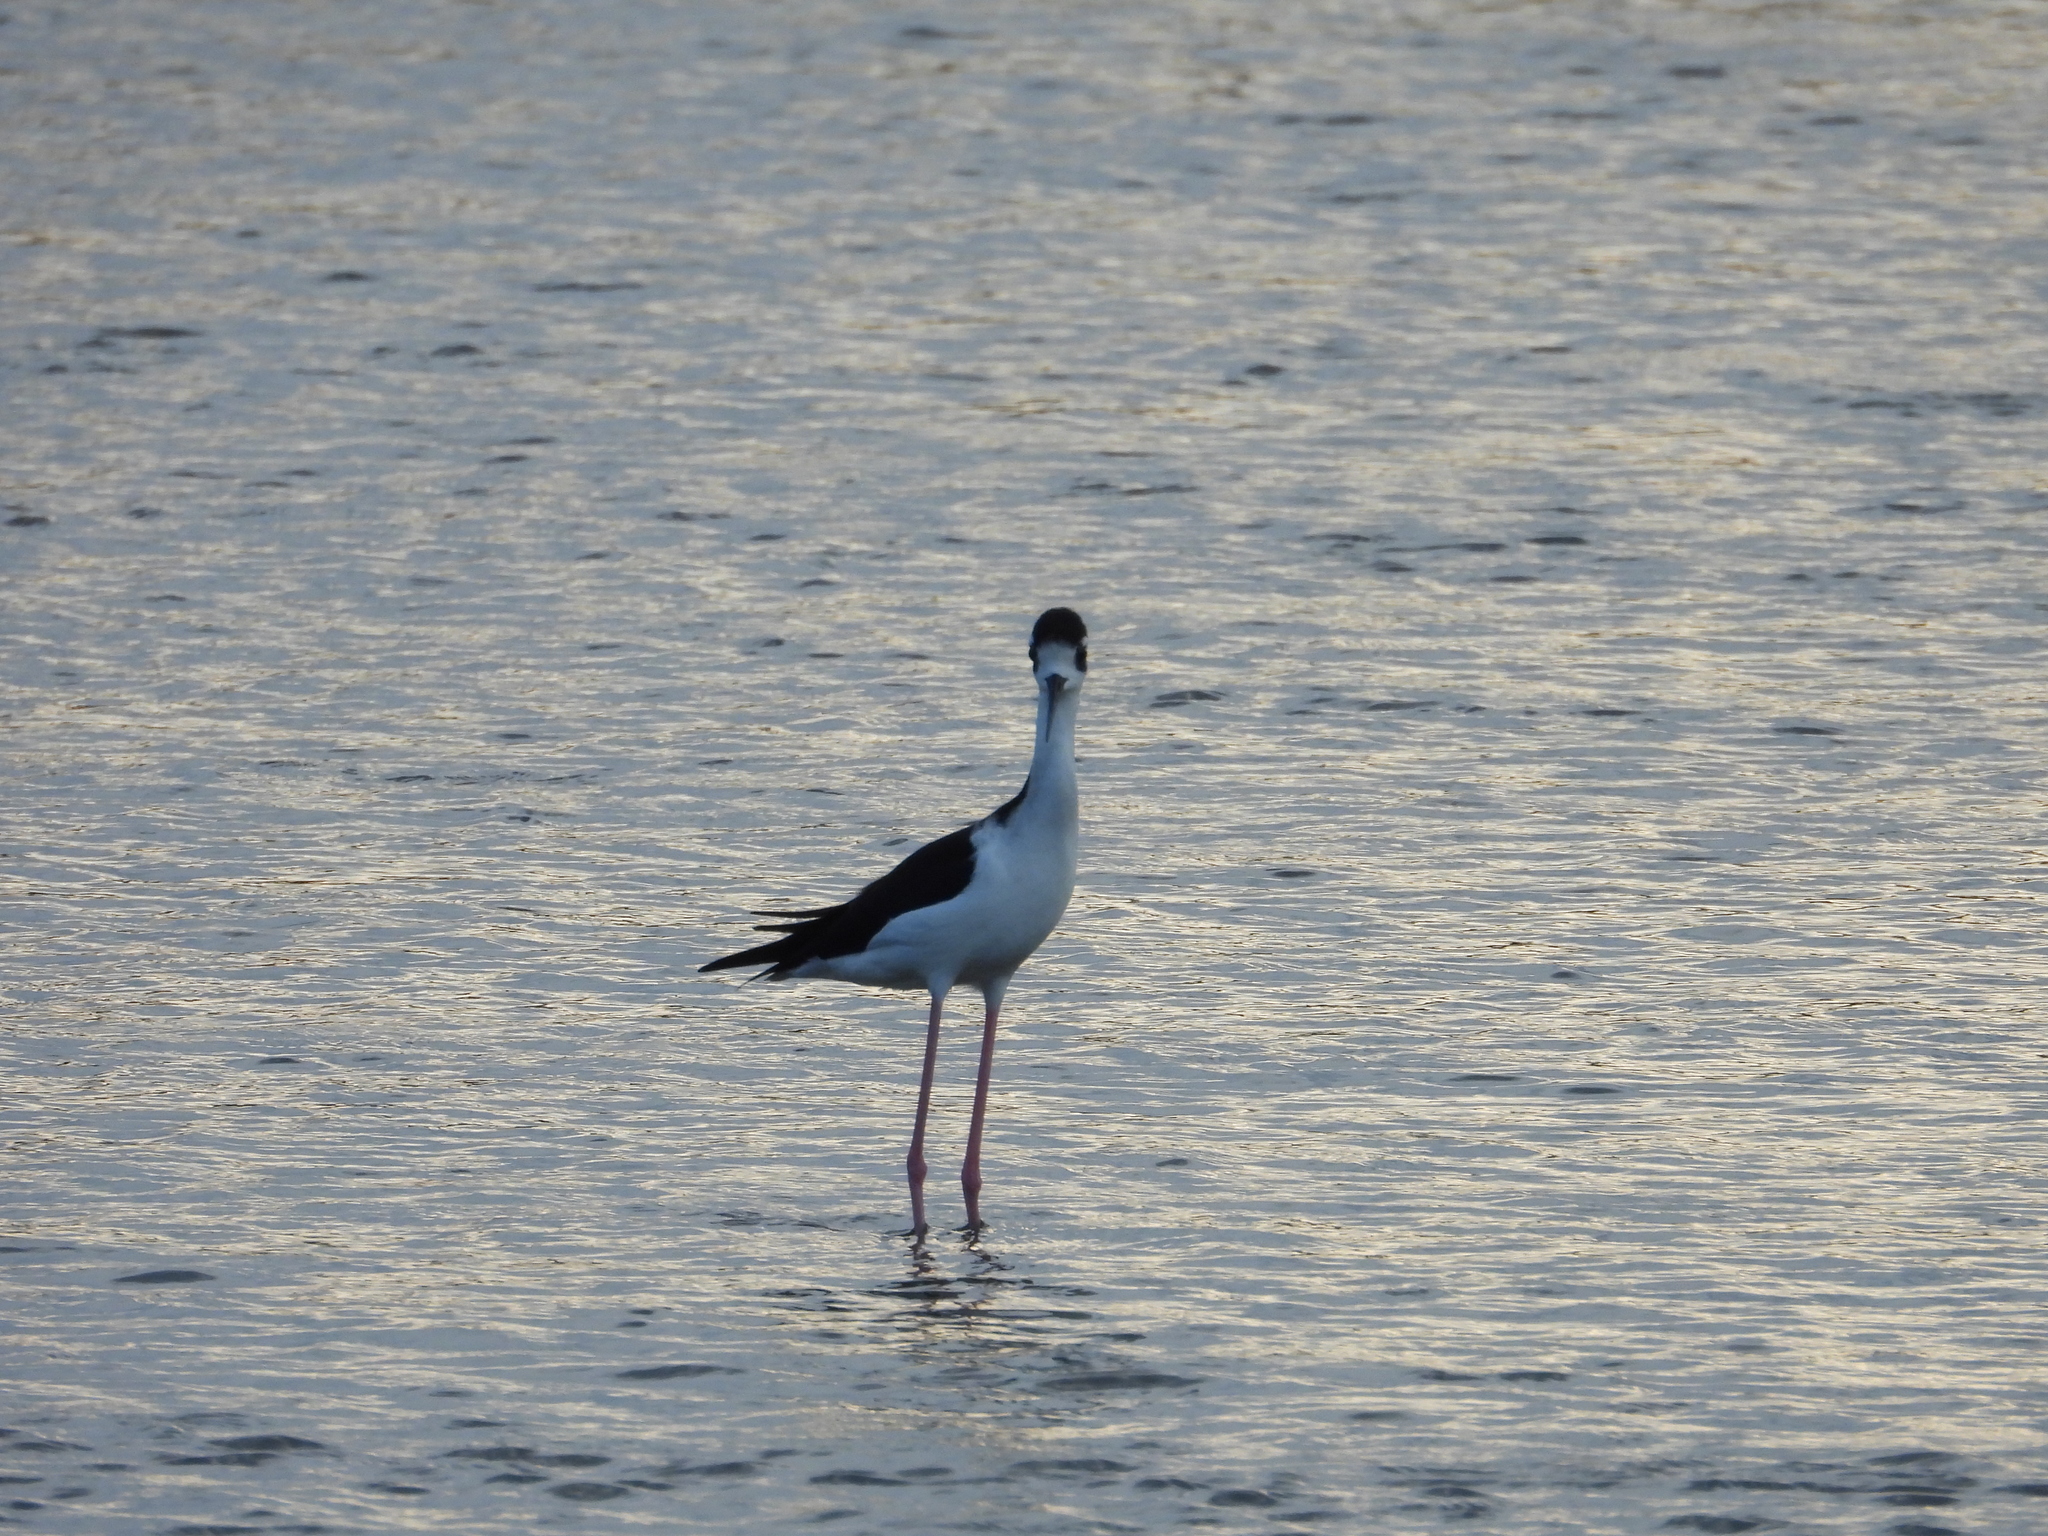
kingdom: Animalia
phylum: Chordata
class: Aves
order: Charadriiformes
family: Recurvirostridae
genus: Himantopus
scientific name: Himantopus mexicanus
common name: Black-necked stilt
